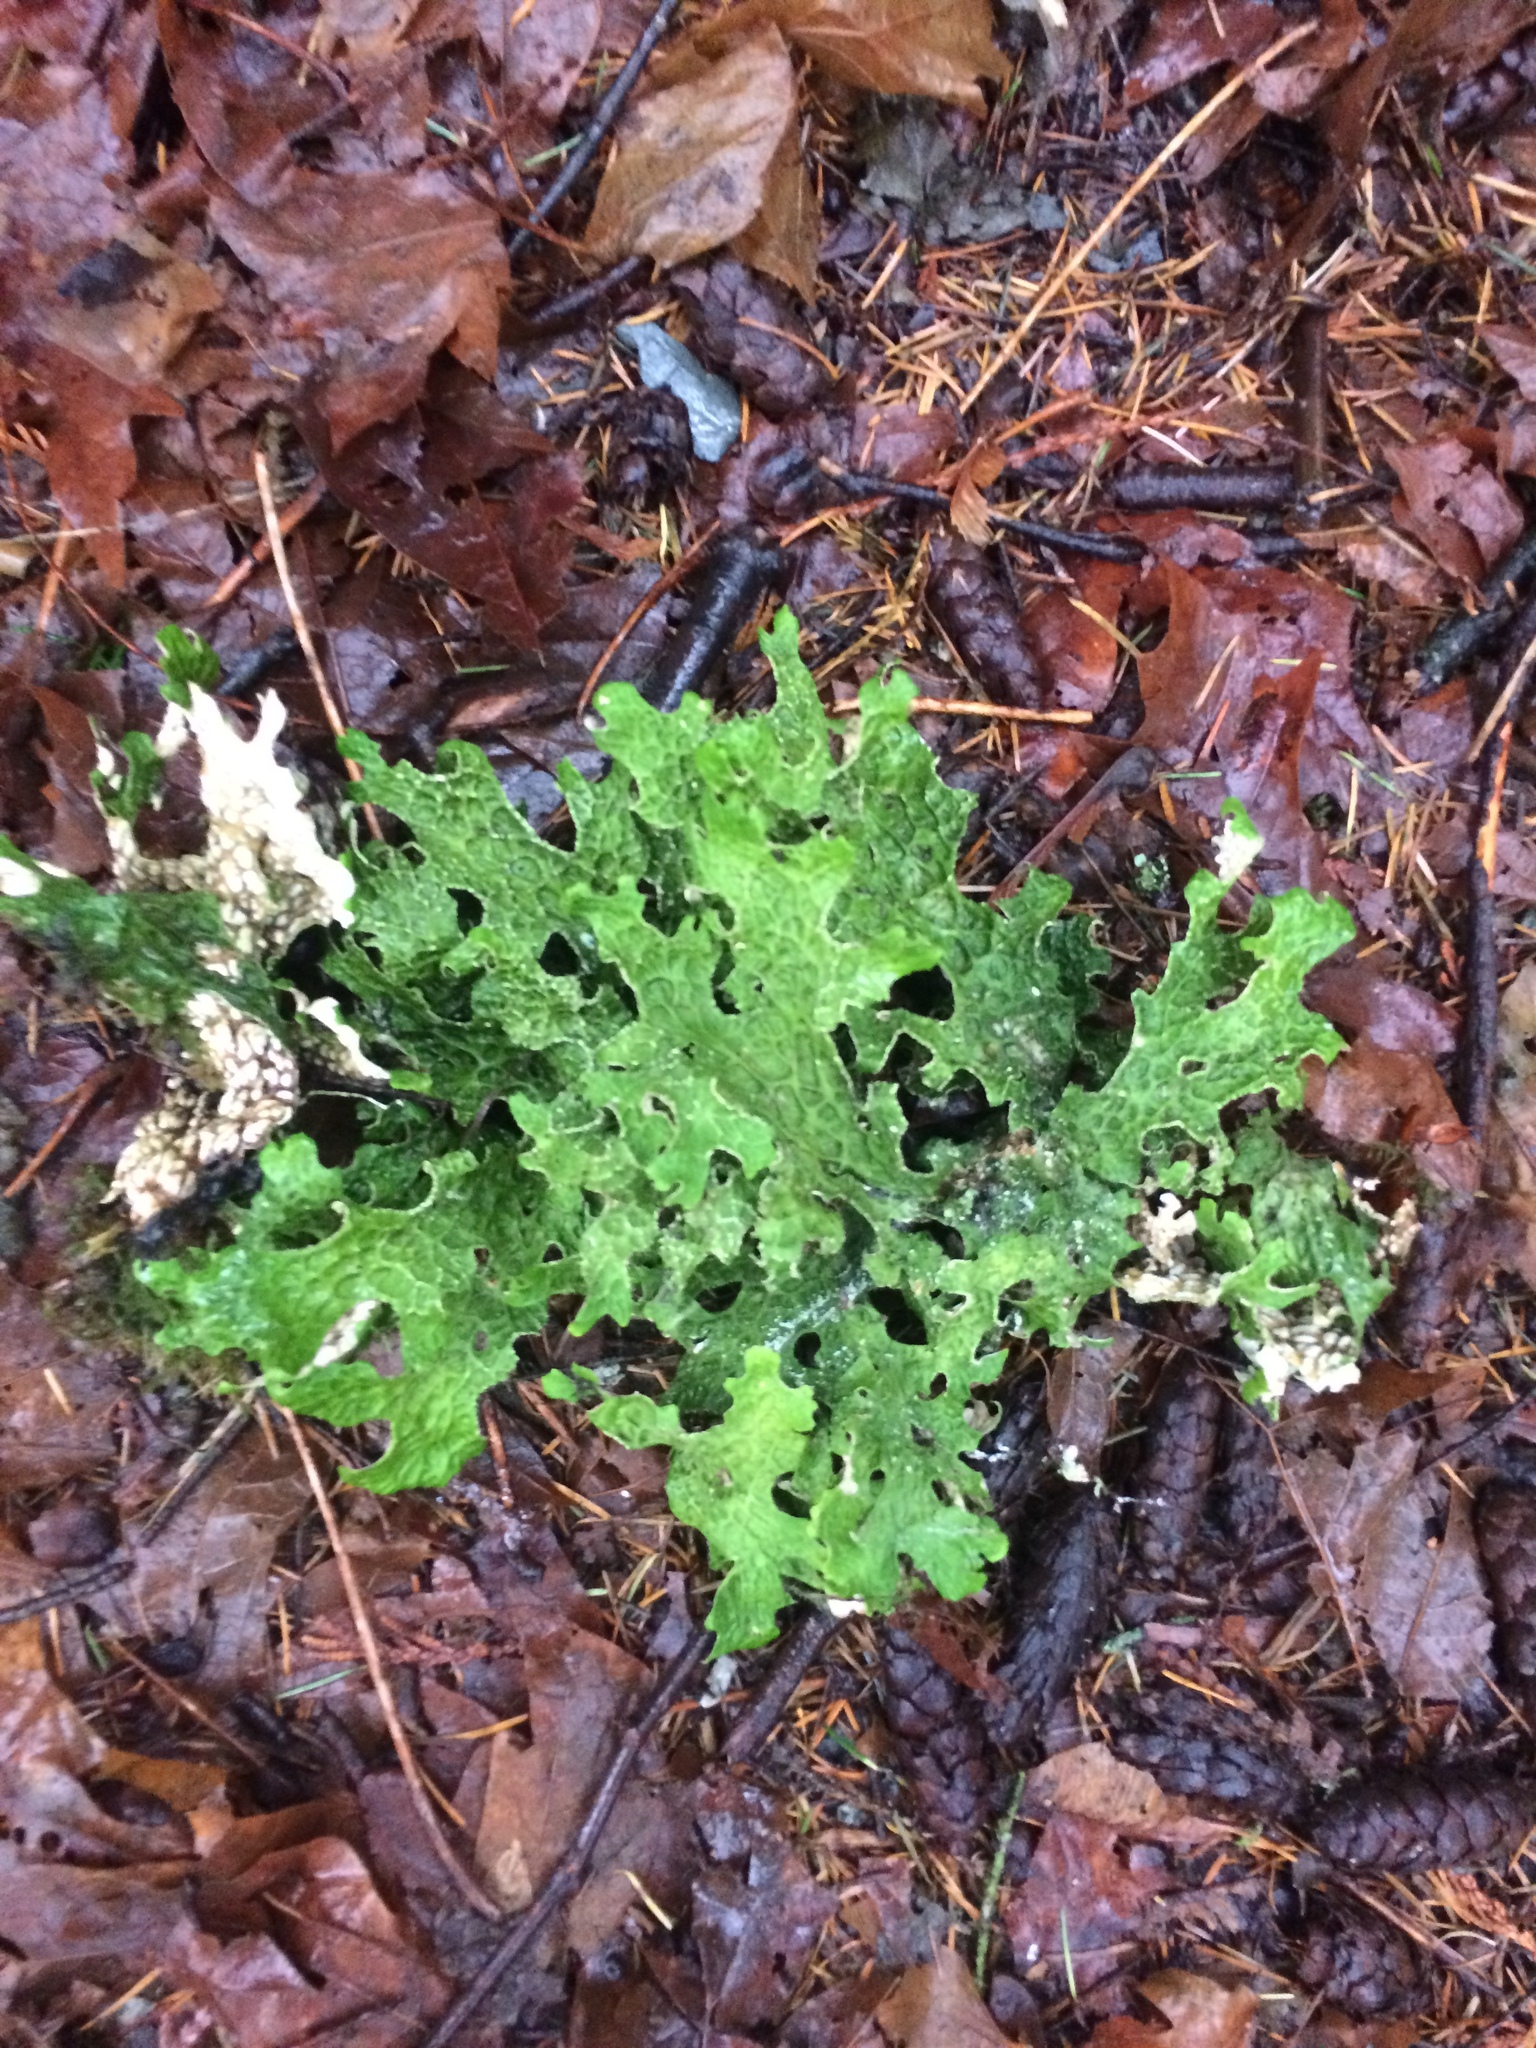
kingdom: Fungi
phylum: Ascomycota
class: Lecanoromycetes
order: Peltigerales
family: Lobariaceae
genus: Lobaria
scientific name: Lobaria pulmonaria
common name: Lungwort
